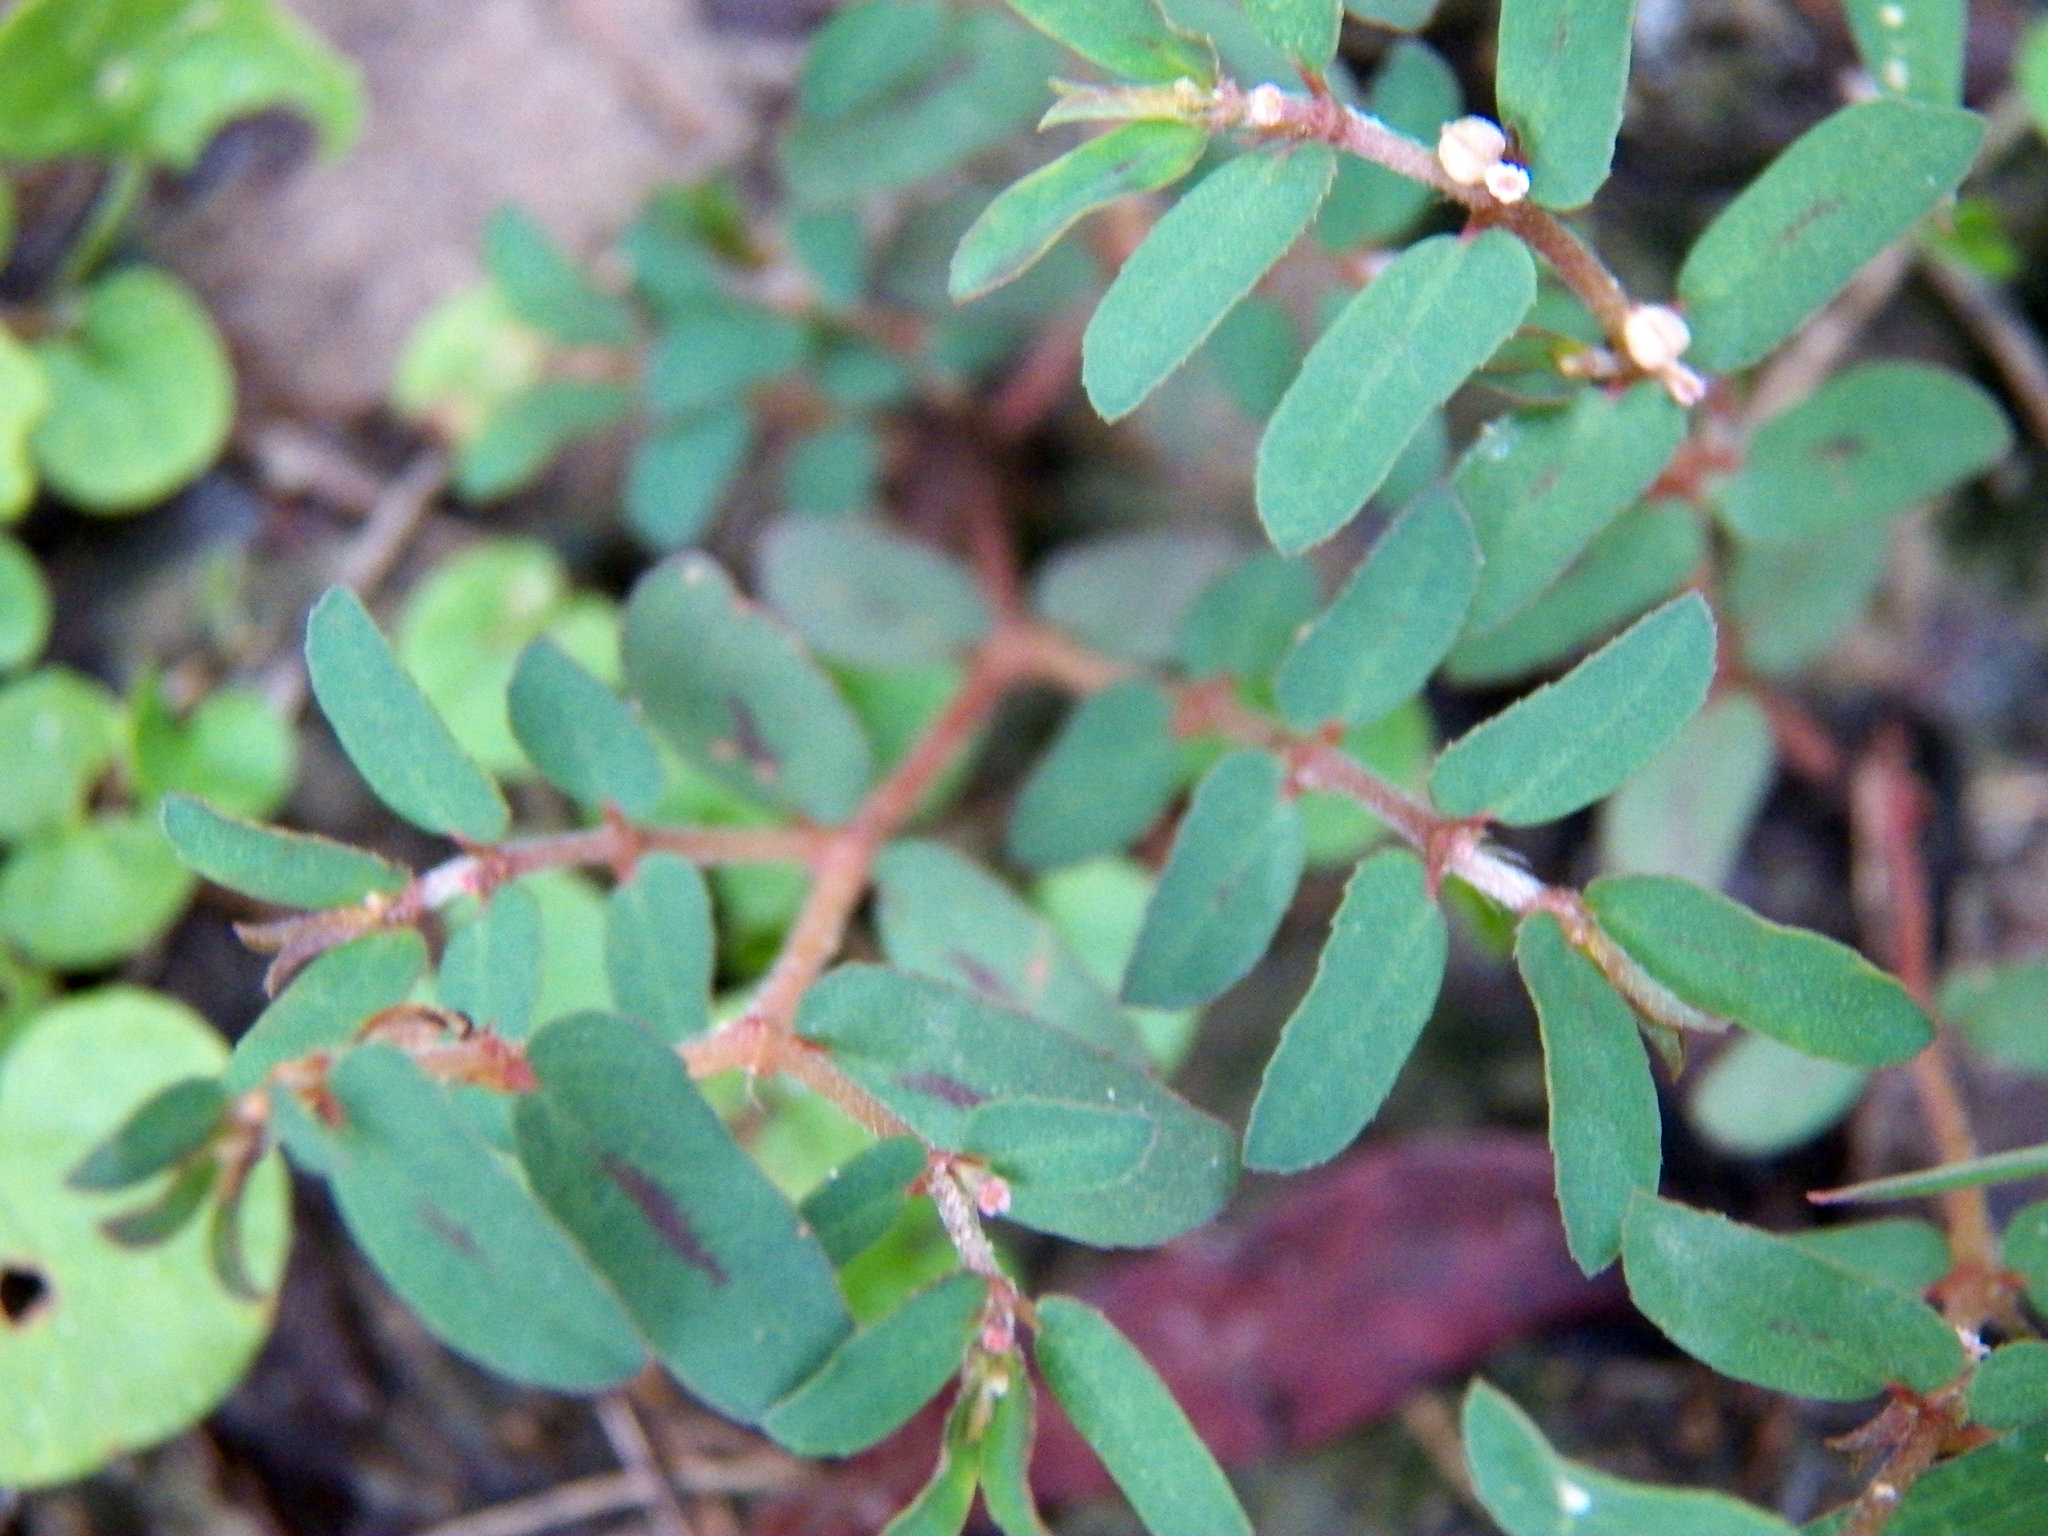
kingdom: Plantae
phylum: Tracheophyta
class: Magnoliopsida
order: Malpighiales
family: Euphorbiaceae
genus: Euphorbia
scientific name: Euphorbia maculata
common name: Spotted spurge
